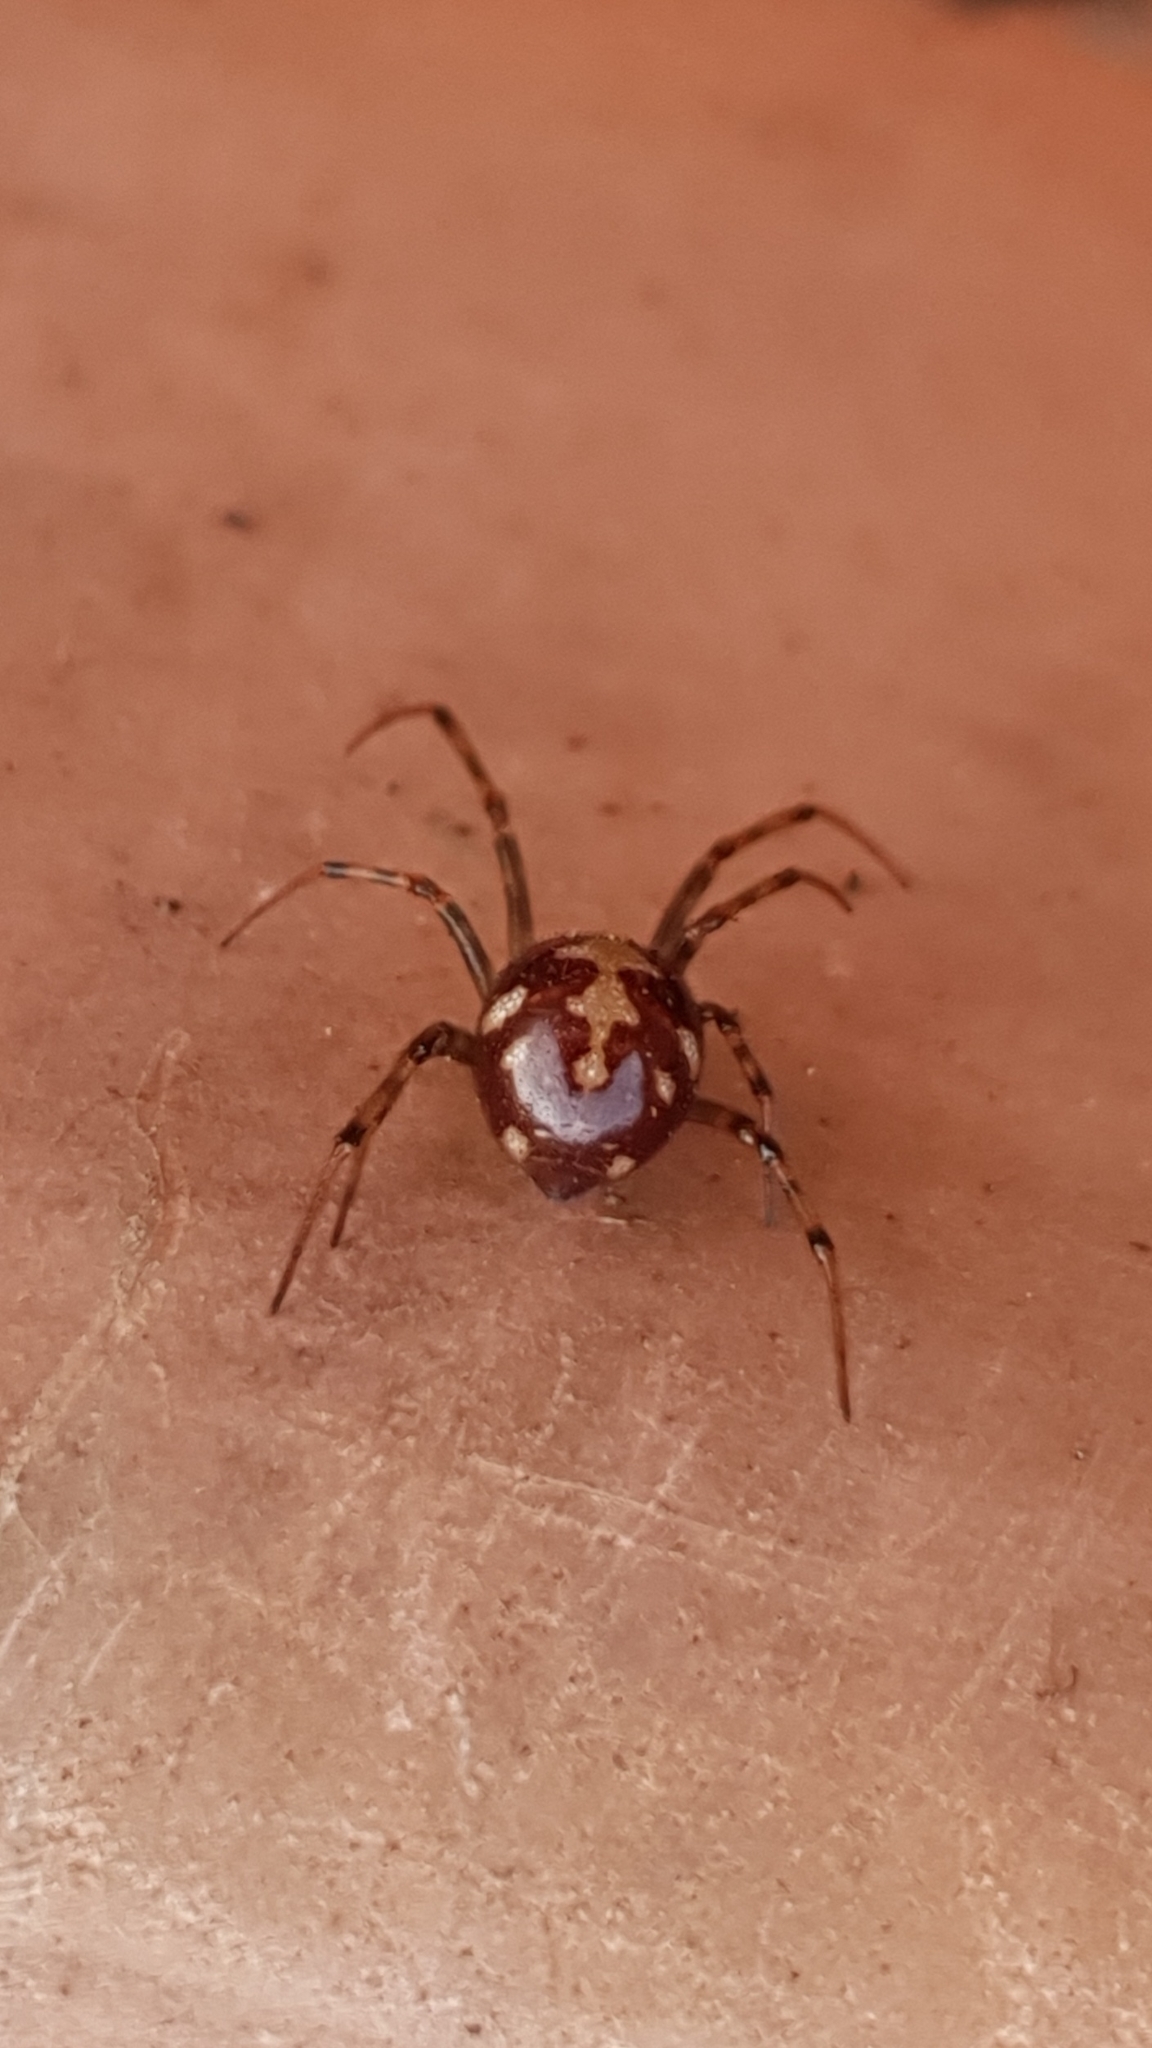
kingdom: Animalia
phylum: Arthropoda
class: Arachnida
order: Araneae
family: Theridiidae
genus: Steatoda
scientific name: Steatoda triangulosa
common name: Triangulate bud spider
